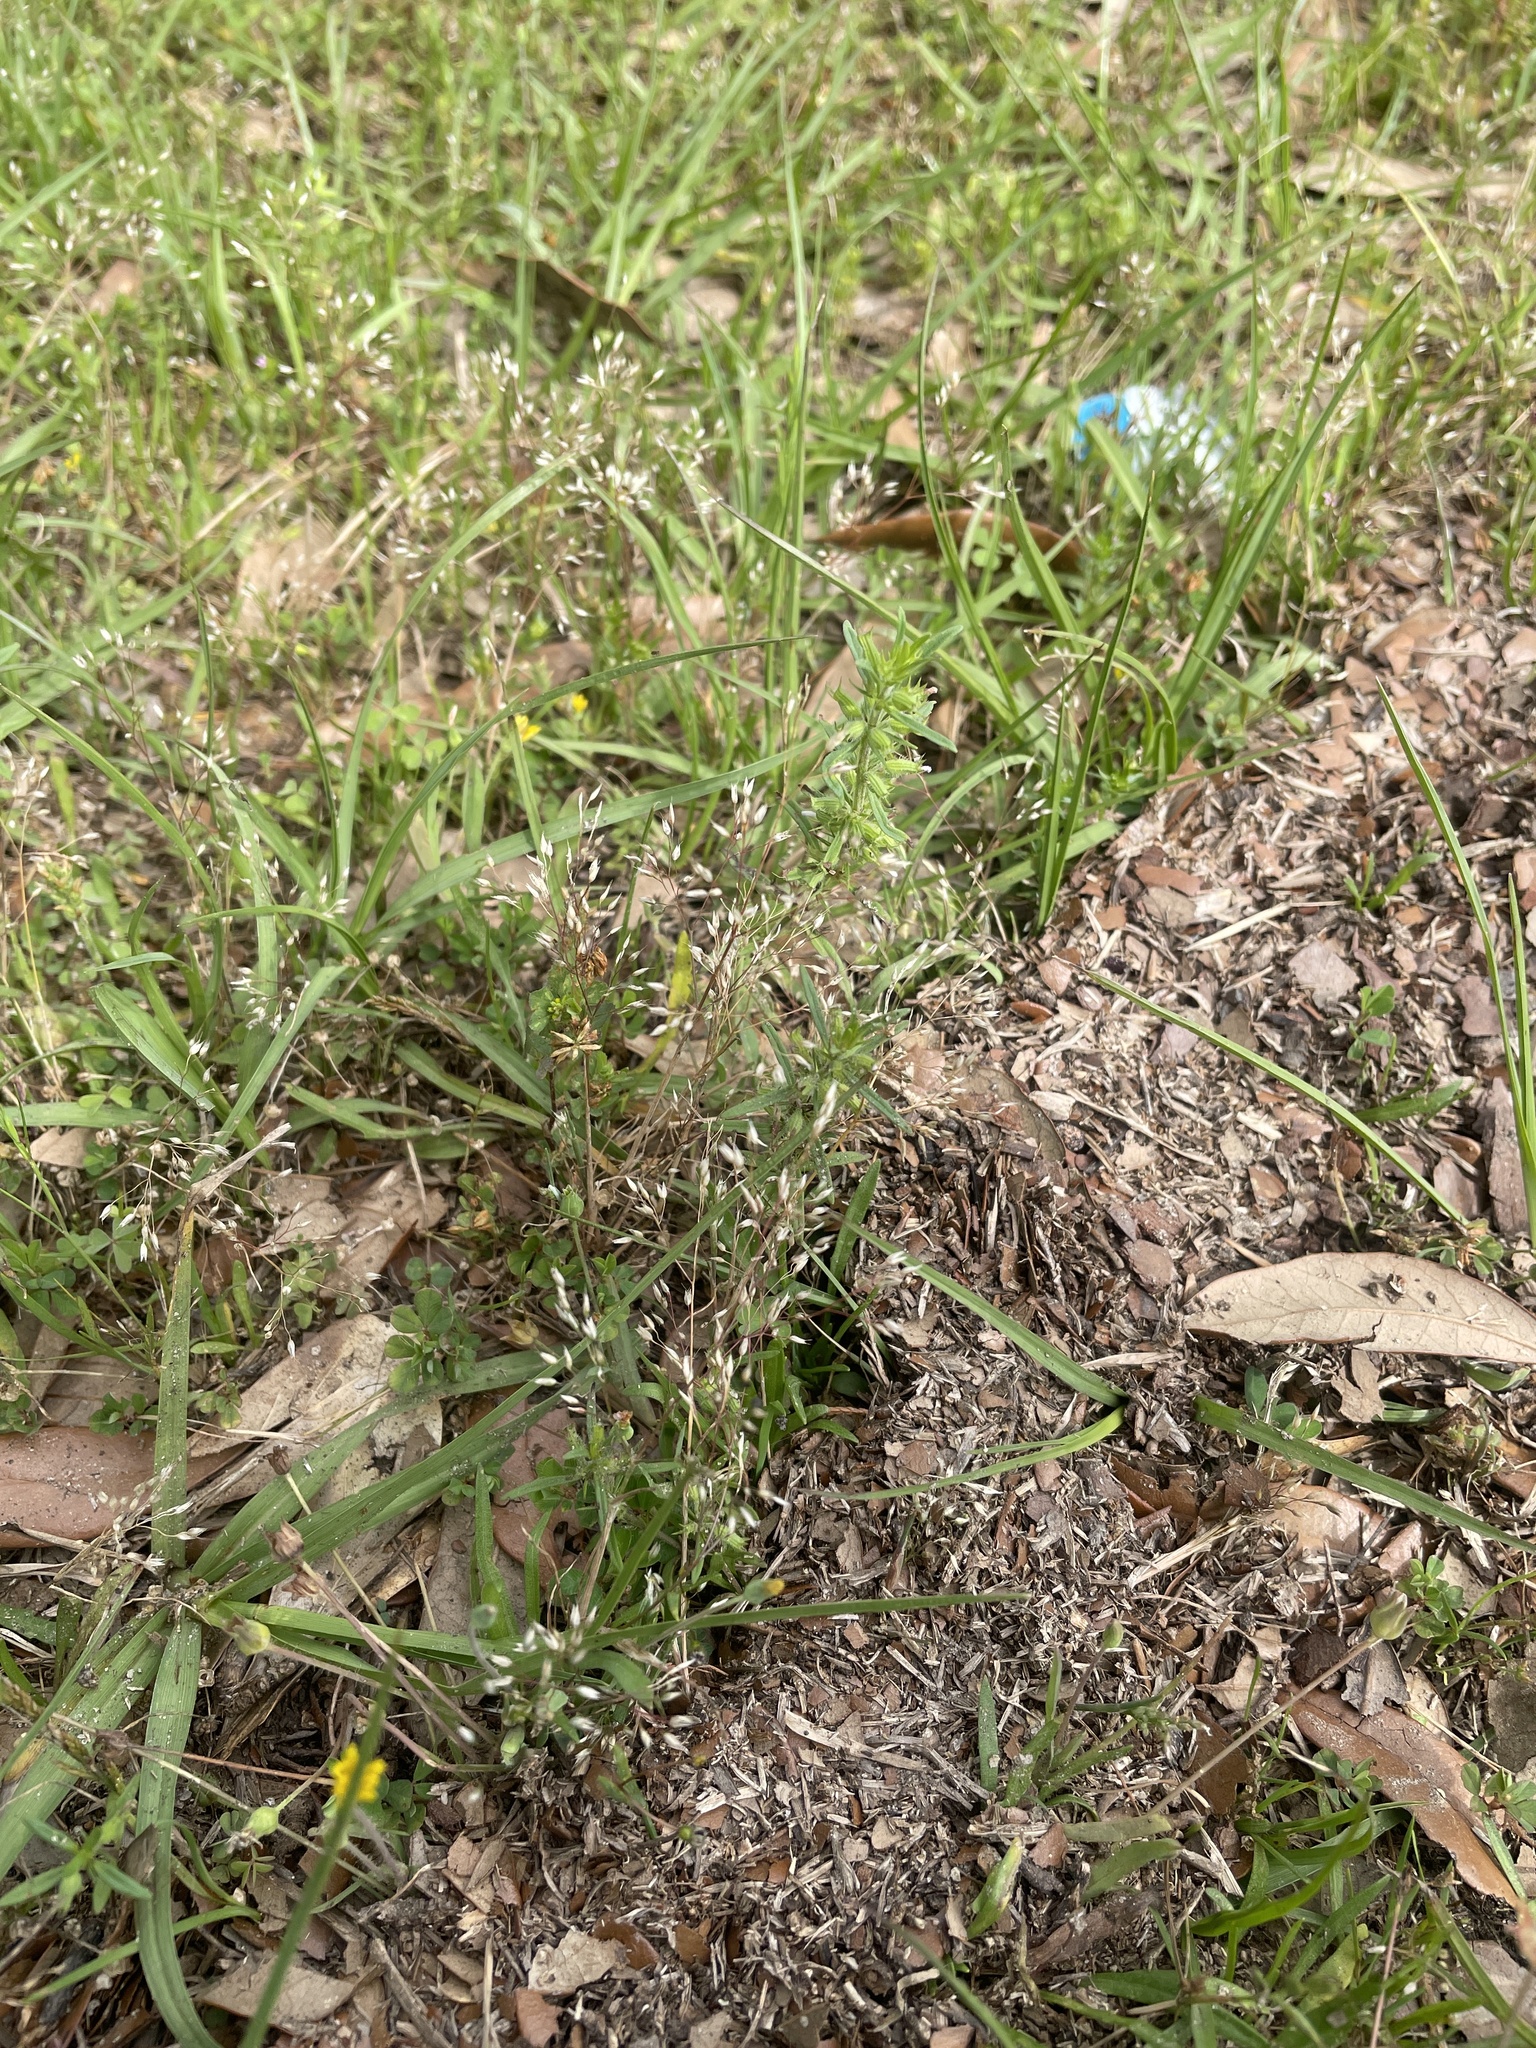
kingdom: Plantae
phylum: Tracheophyta
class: Liliopsida
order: Poales
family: Poaceae
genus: Aira
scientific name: Aira caryophyllea
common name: Silver hairgrass
